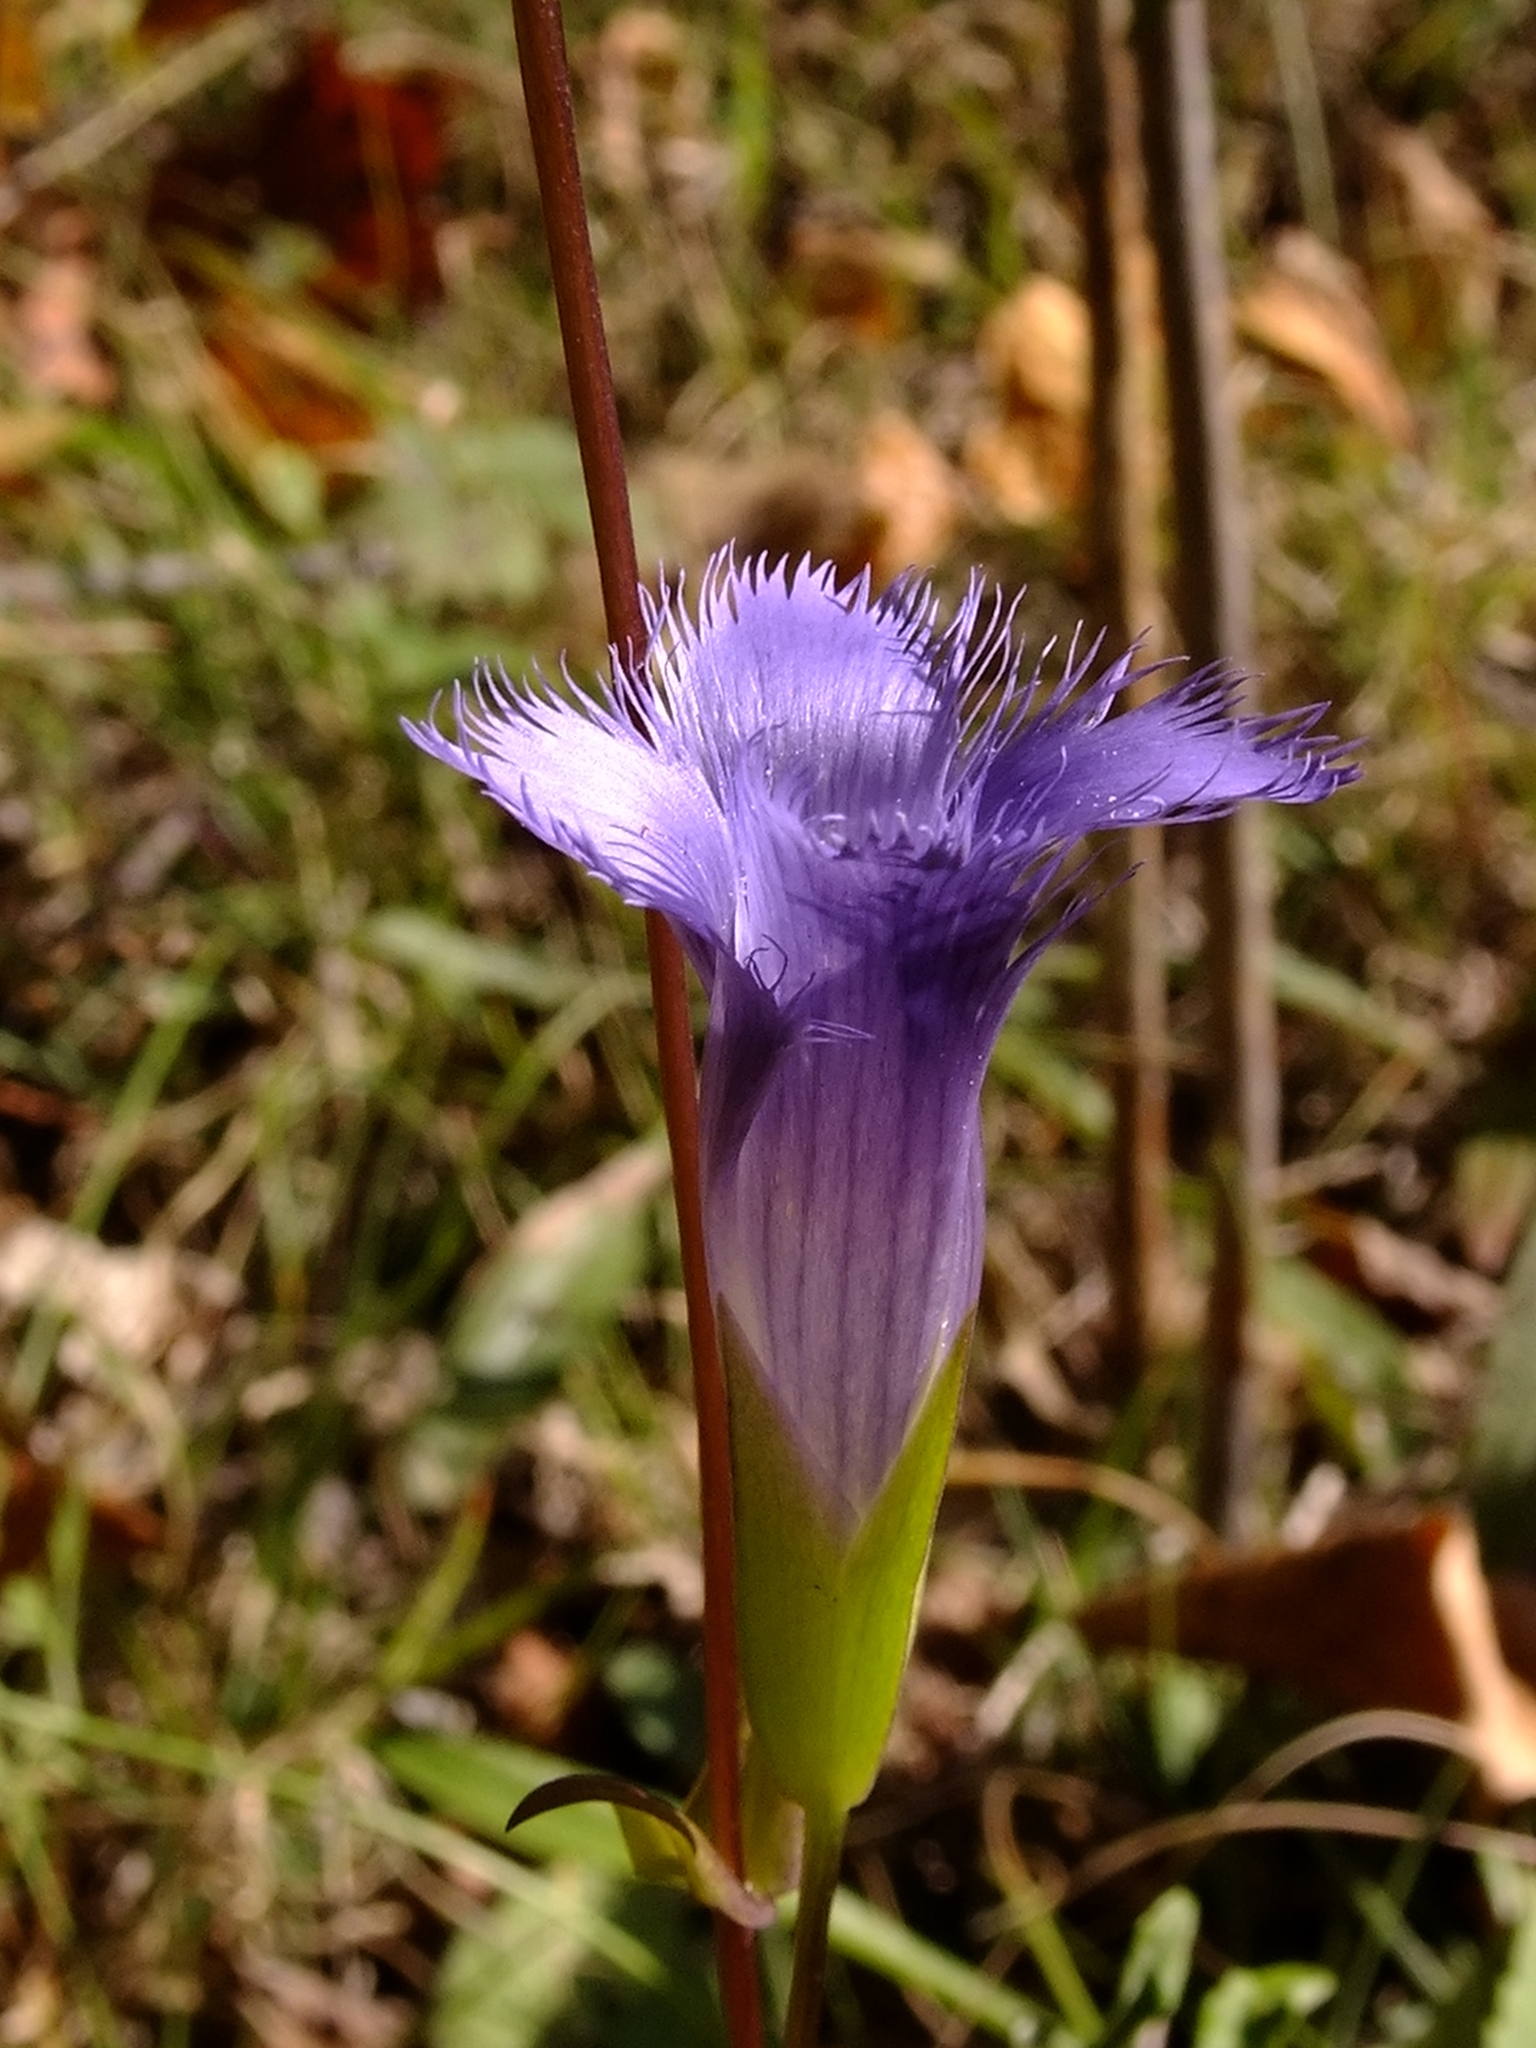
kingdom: Plantae
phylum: Tracheophyta
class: Magnoliopsida
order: Gentianales
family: Gentianaceae
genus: Gentianopsis
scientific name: Gentianopsis crinita
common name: Fringed-gentian
